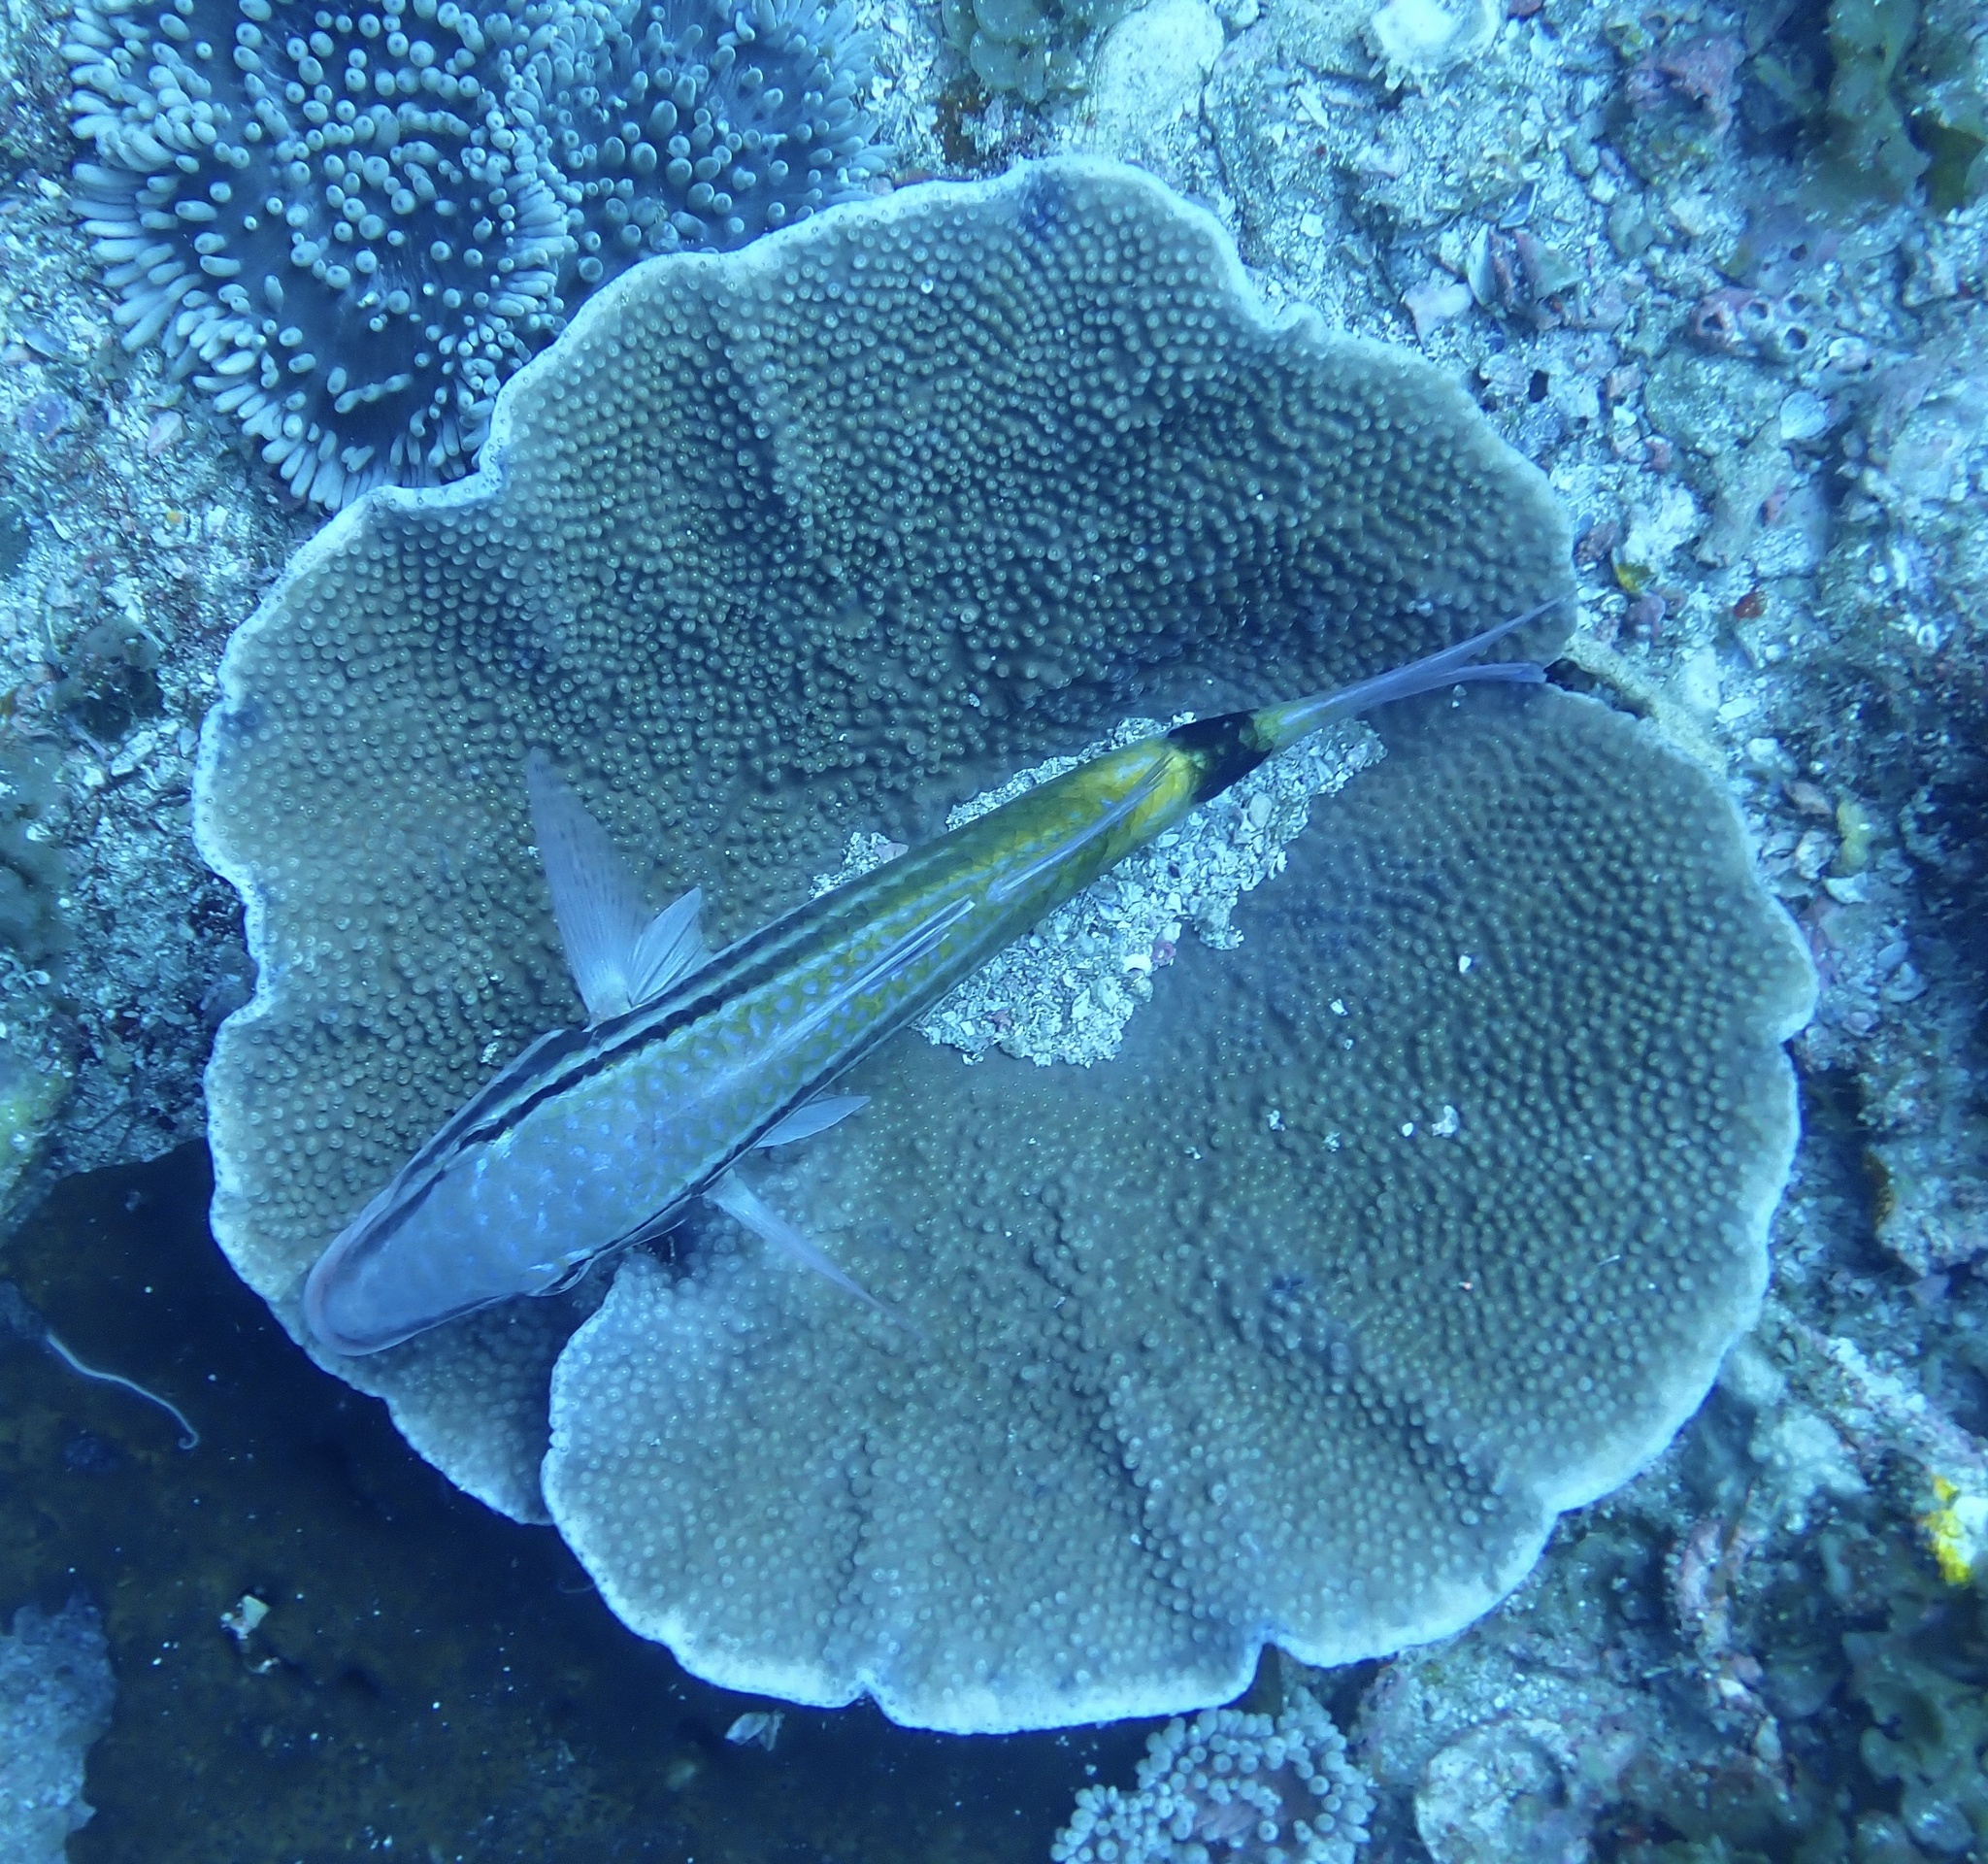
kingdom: Animalia
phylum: Cnidaria
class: Anthozoa
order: Scleractinia
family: Dendrophylliidae
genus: Turbinaria
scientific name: Turbinaria mesenterina
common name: Disc coral
